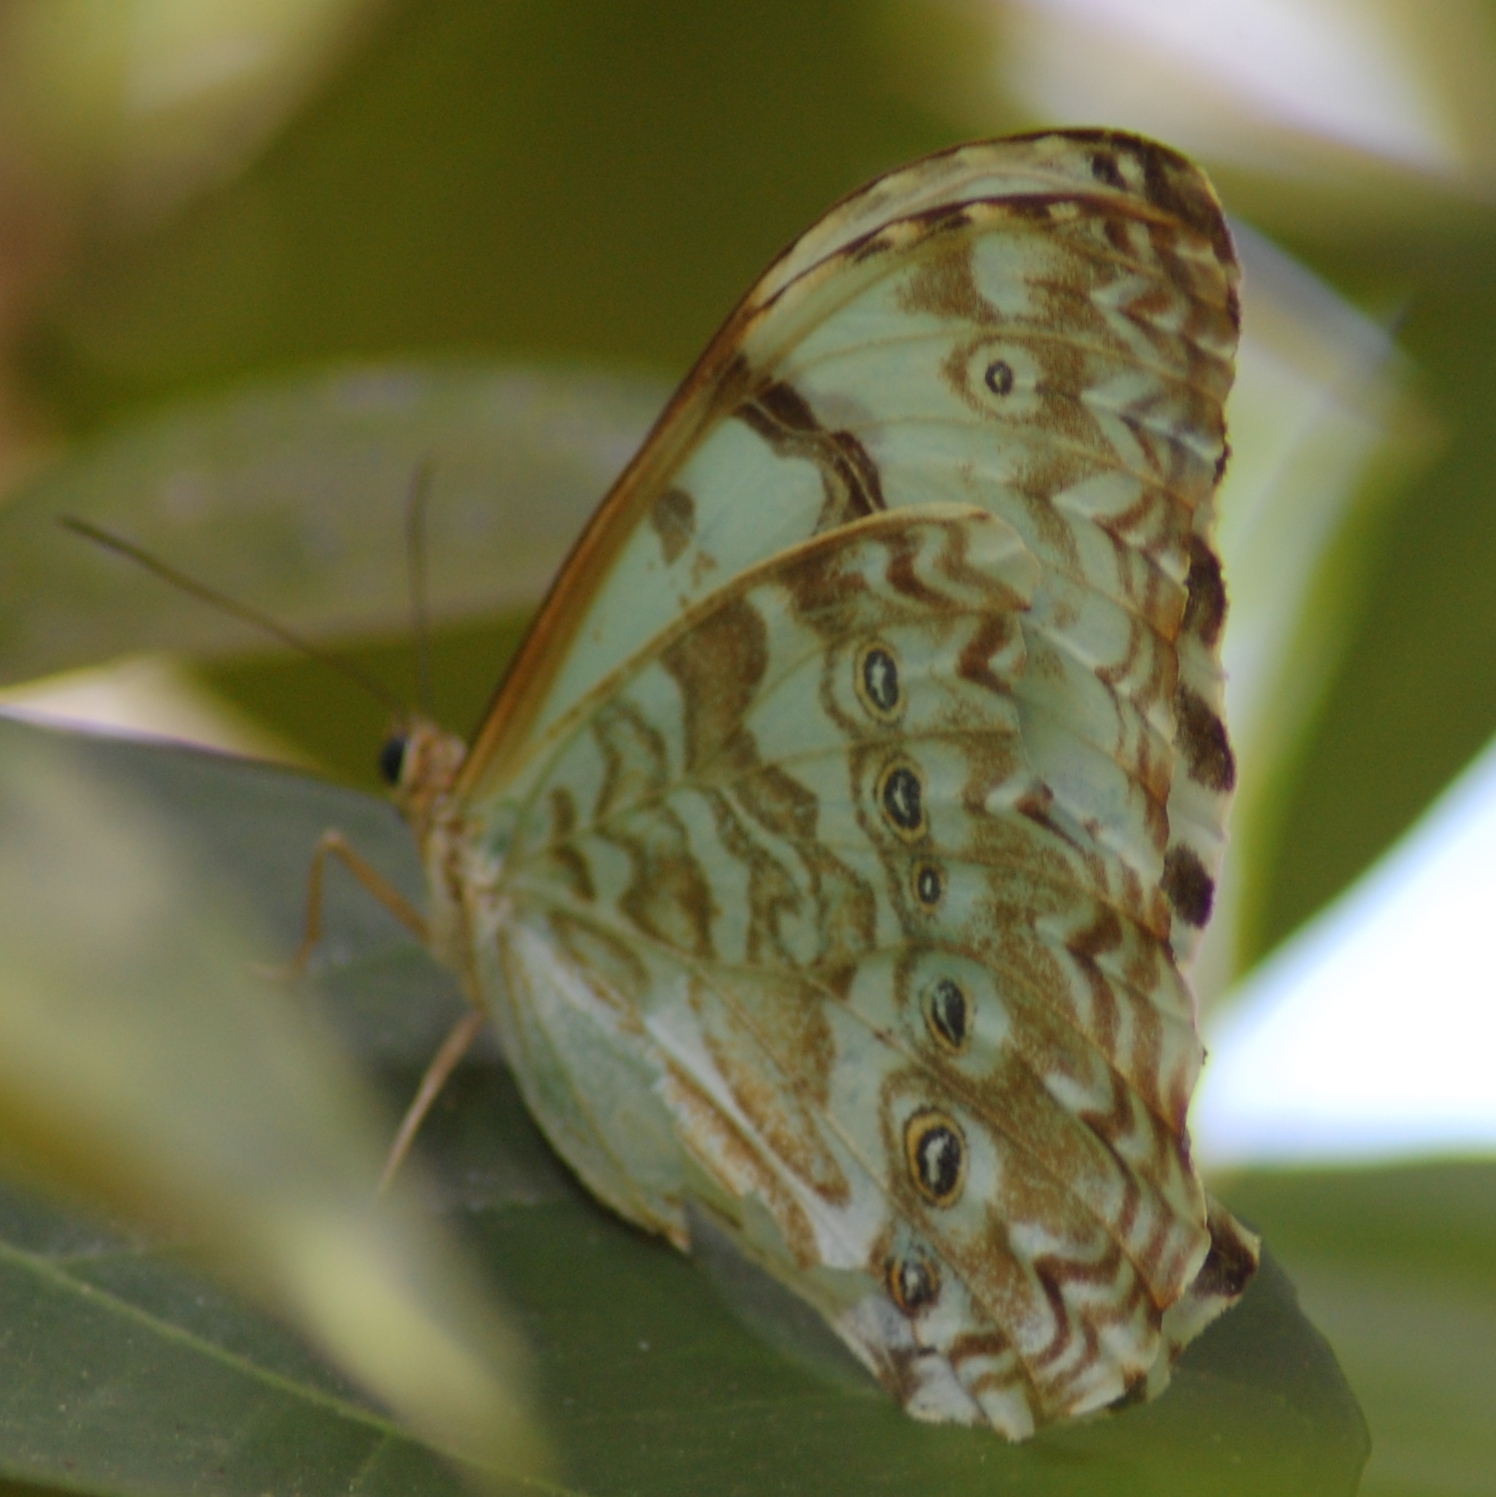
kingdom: Animalia
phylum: Arthropoda
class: Insecta
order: Lepidoptera
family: Nymphalidae
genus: Morpho
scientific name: Morpho epistrophus
